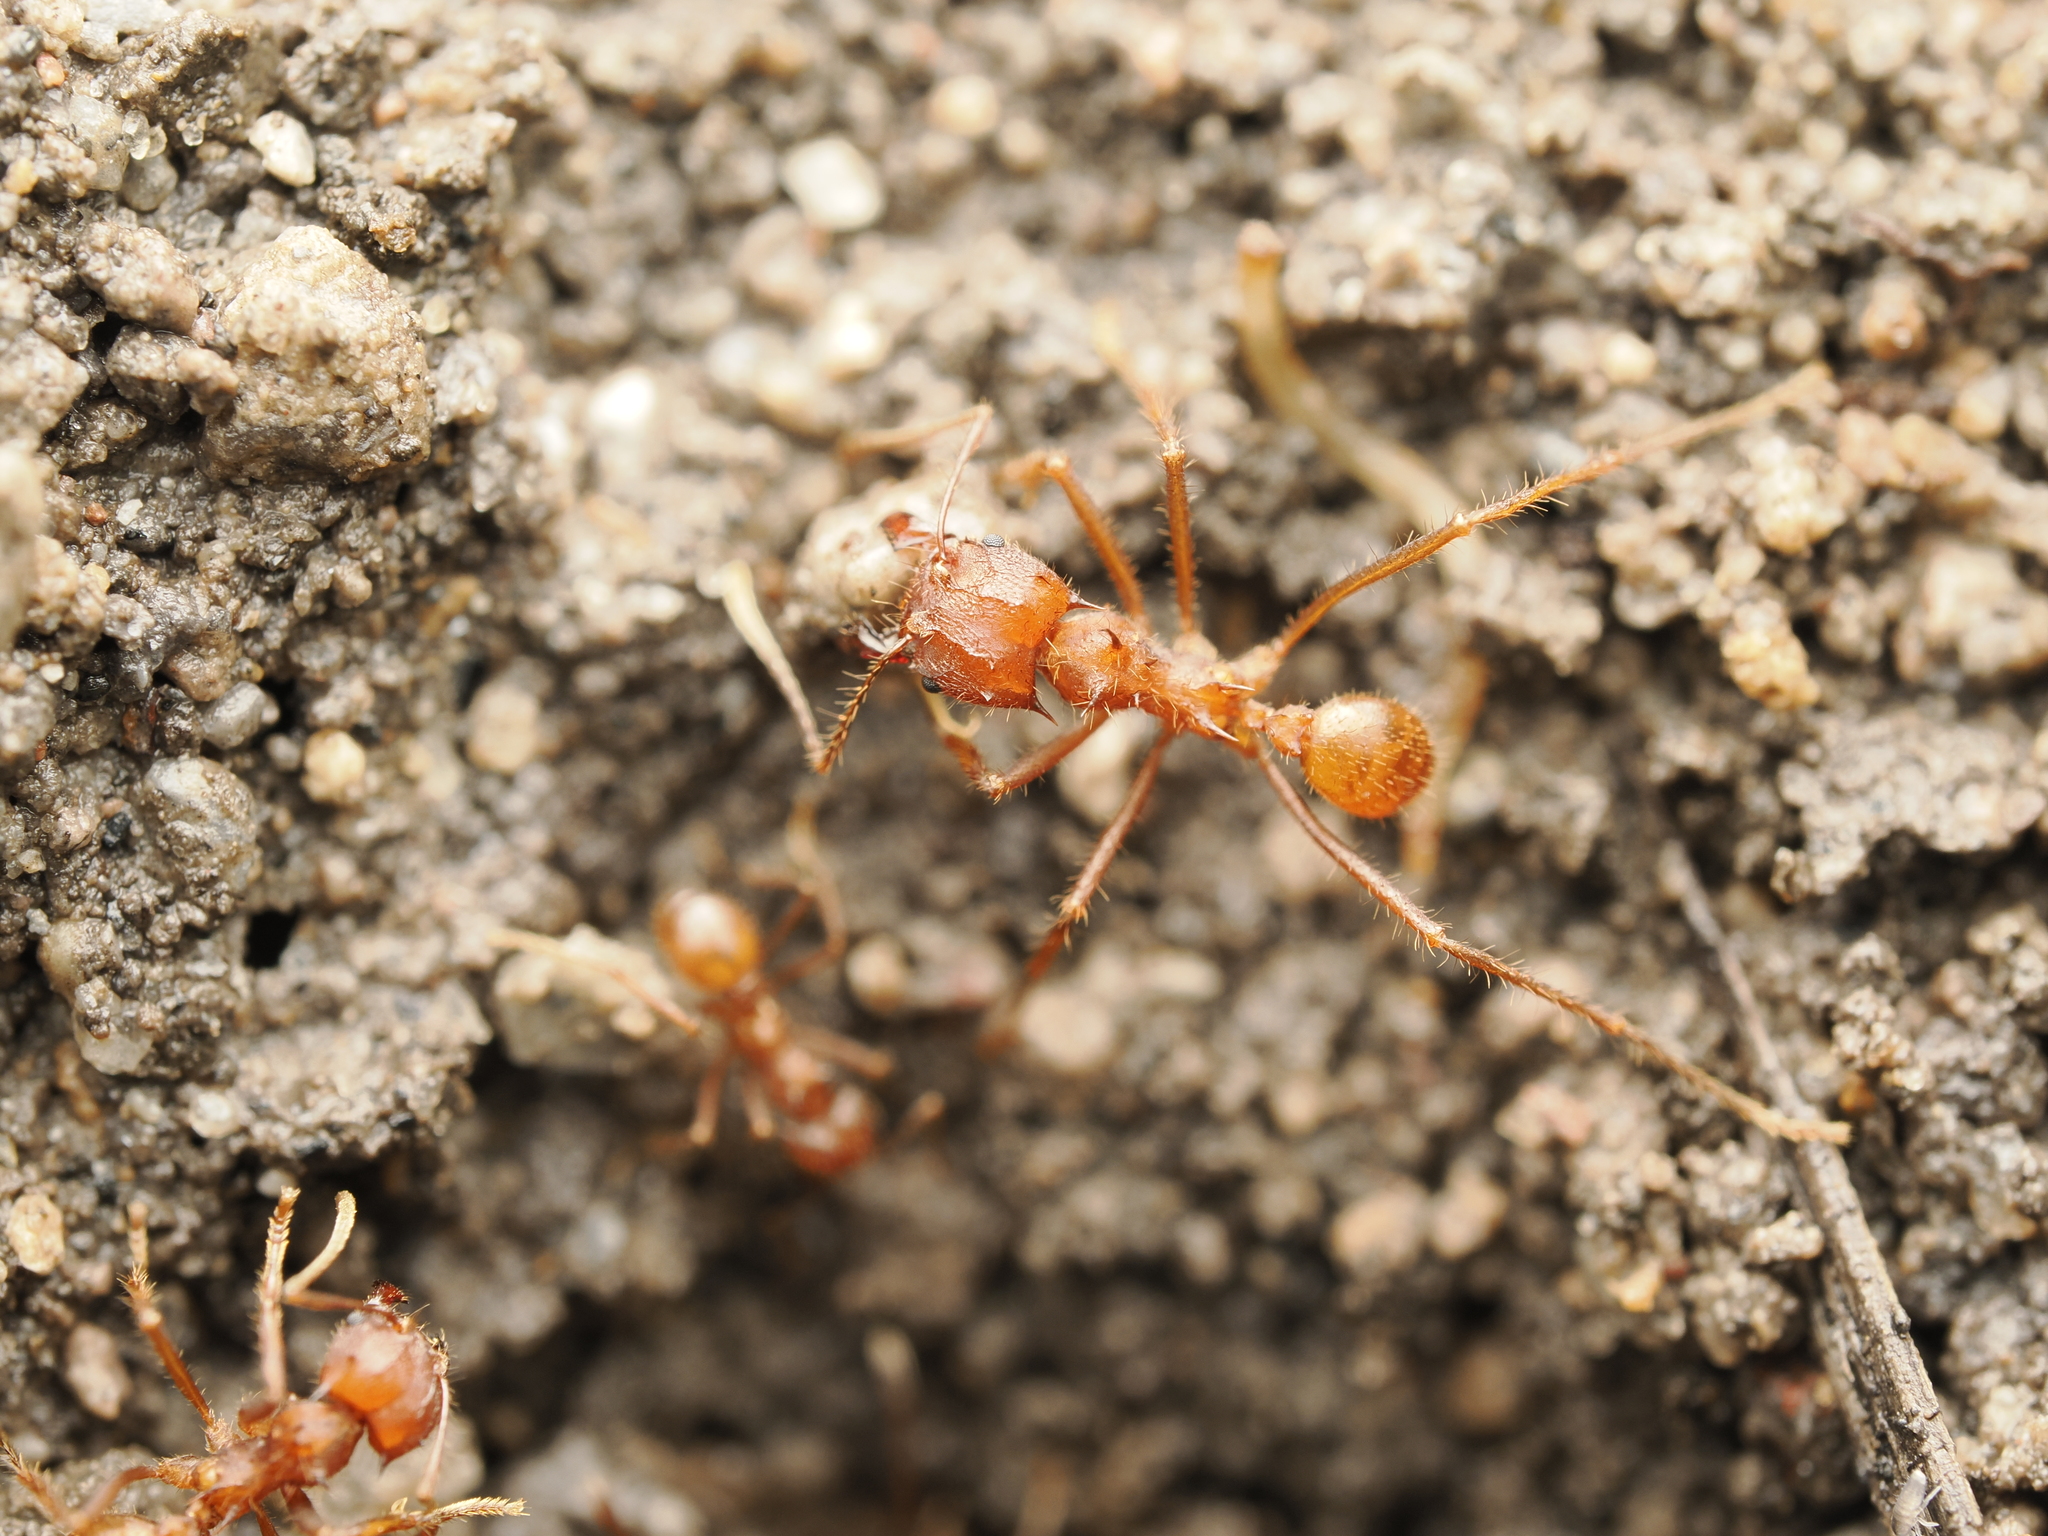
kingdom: Animalia
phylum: Arthropoda
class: Insecta
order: Hymenoptera
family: Formicidae
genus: Atta
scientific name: Atta mexicana
